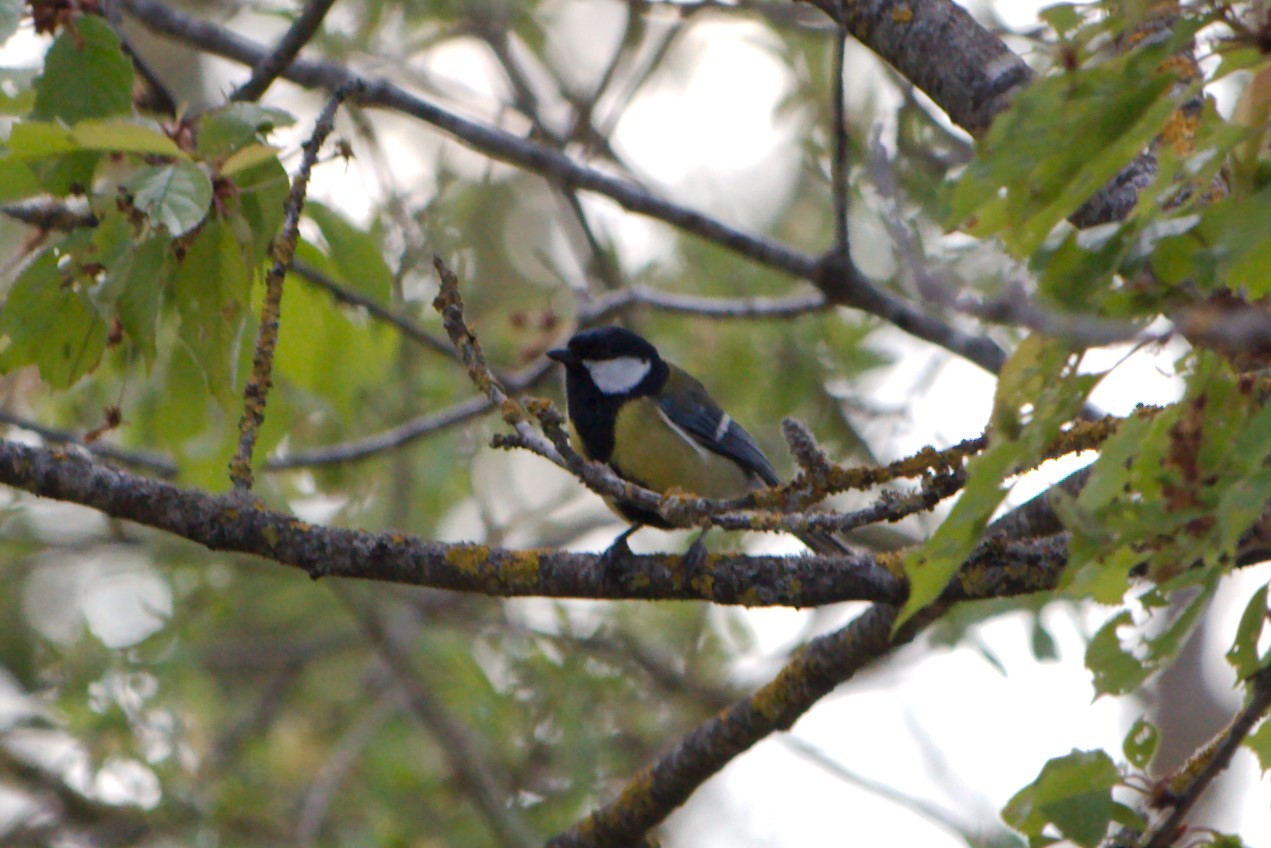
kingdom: Animalia
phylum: Chordata
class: Aves
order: Passeriformes
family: Paridae
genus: Parus
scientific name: Parus major
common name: Great tit
